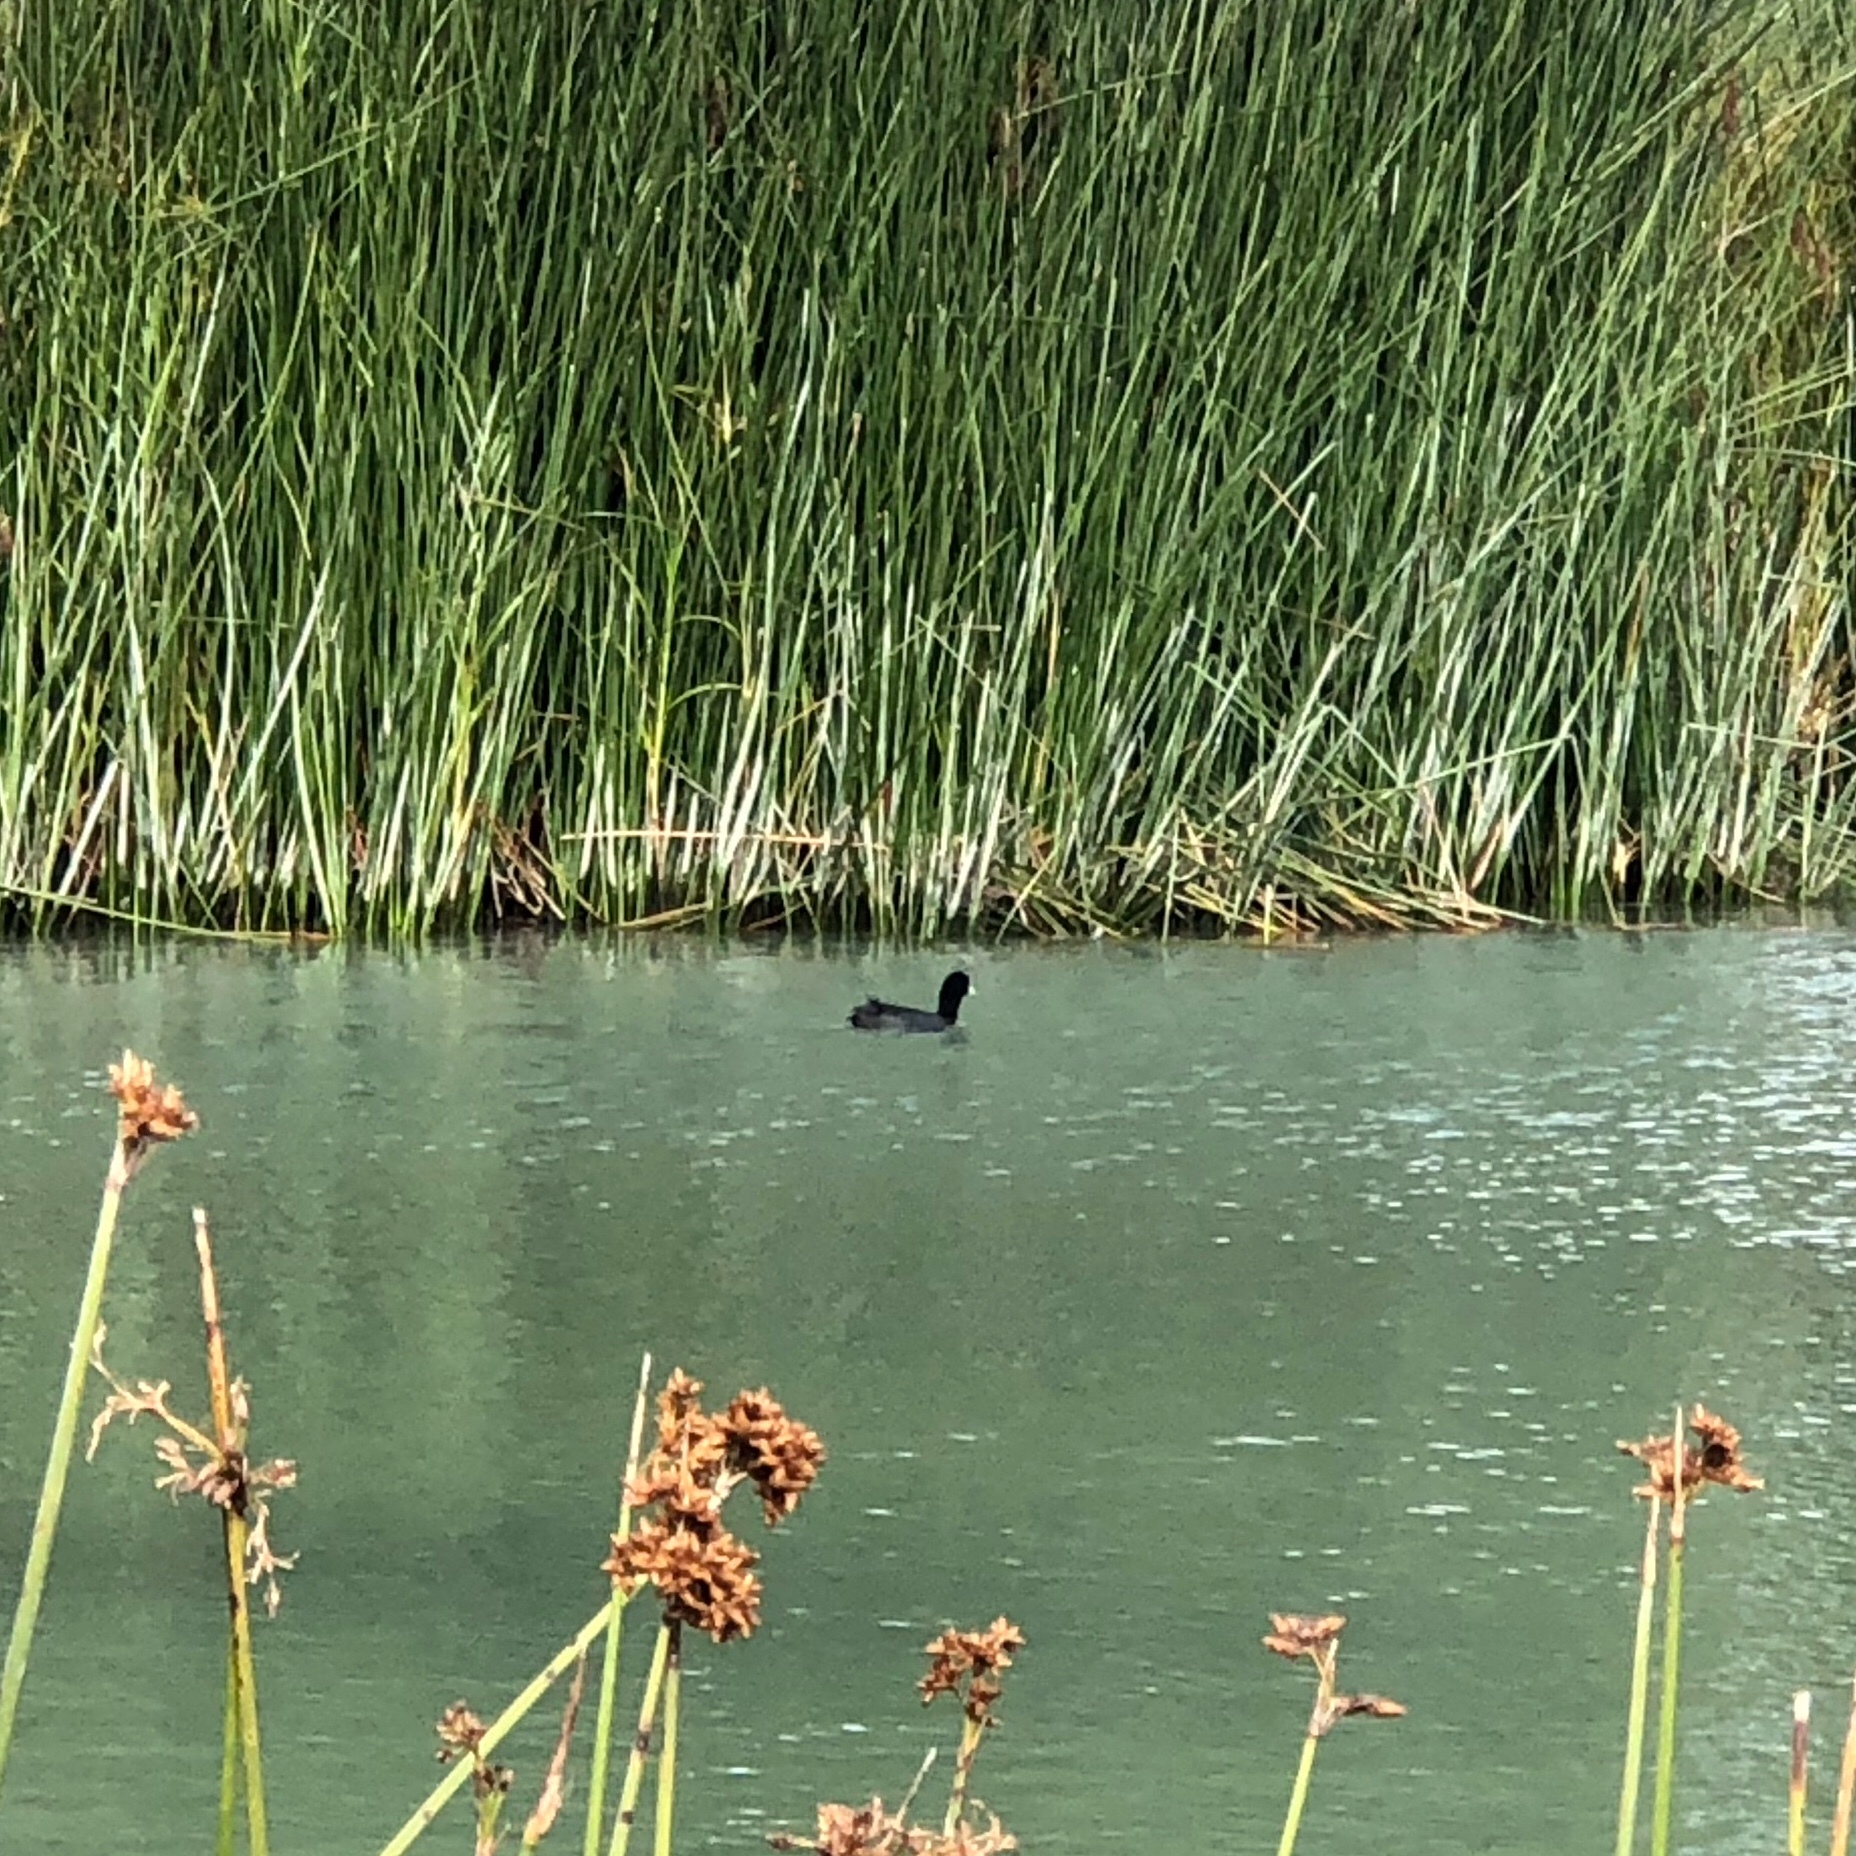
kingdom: Animalia
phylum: Chordata
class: Aves
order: Gruiformes
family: Rallidae
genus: Fulica
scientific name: Fulica atra
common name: Eurasian coot
